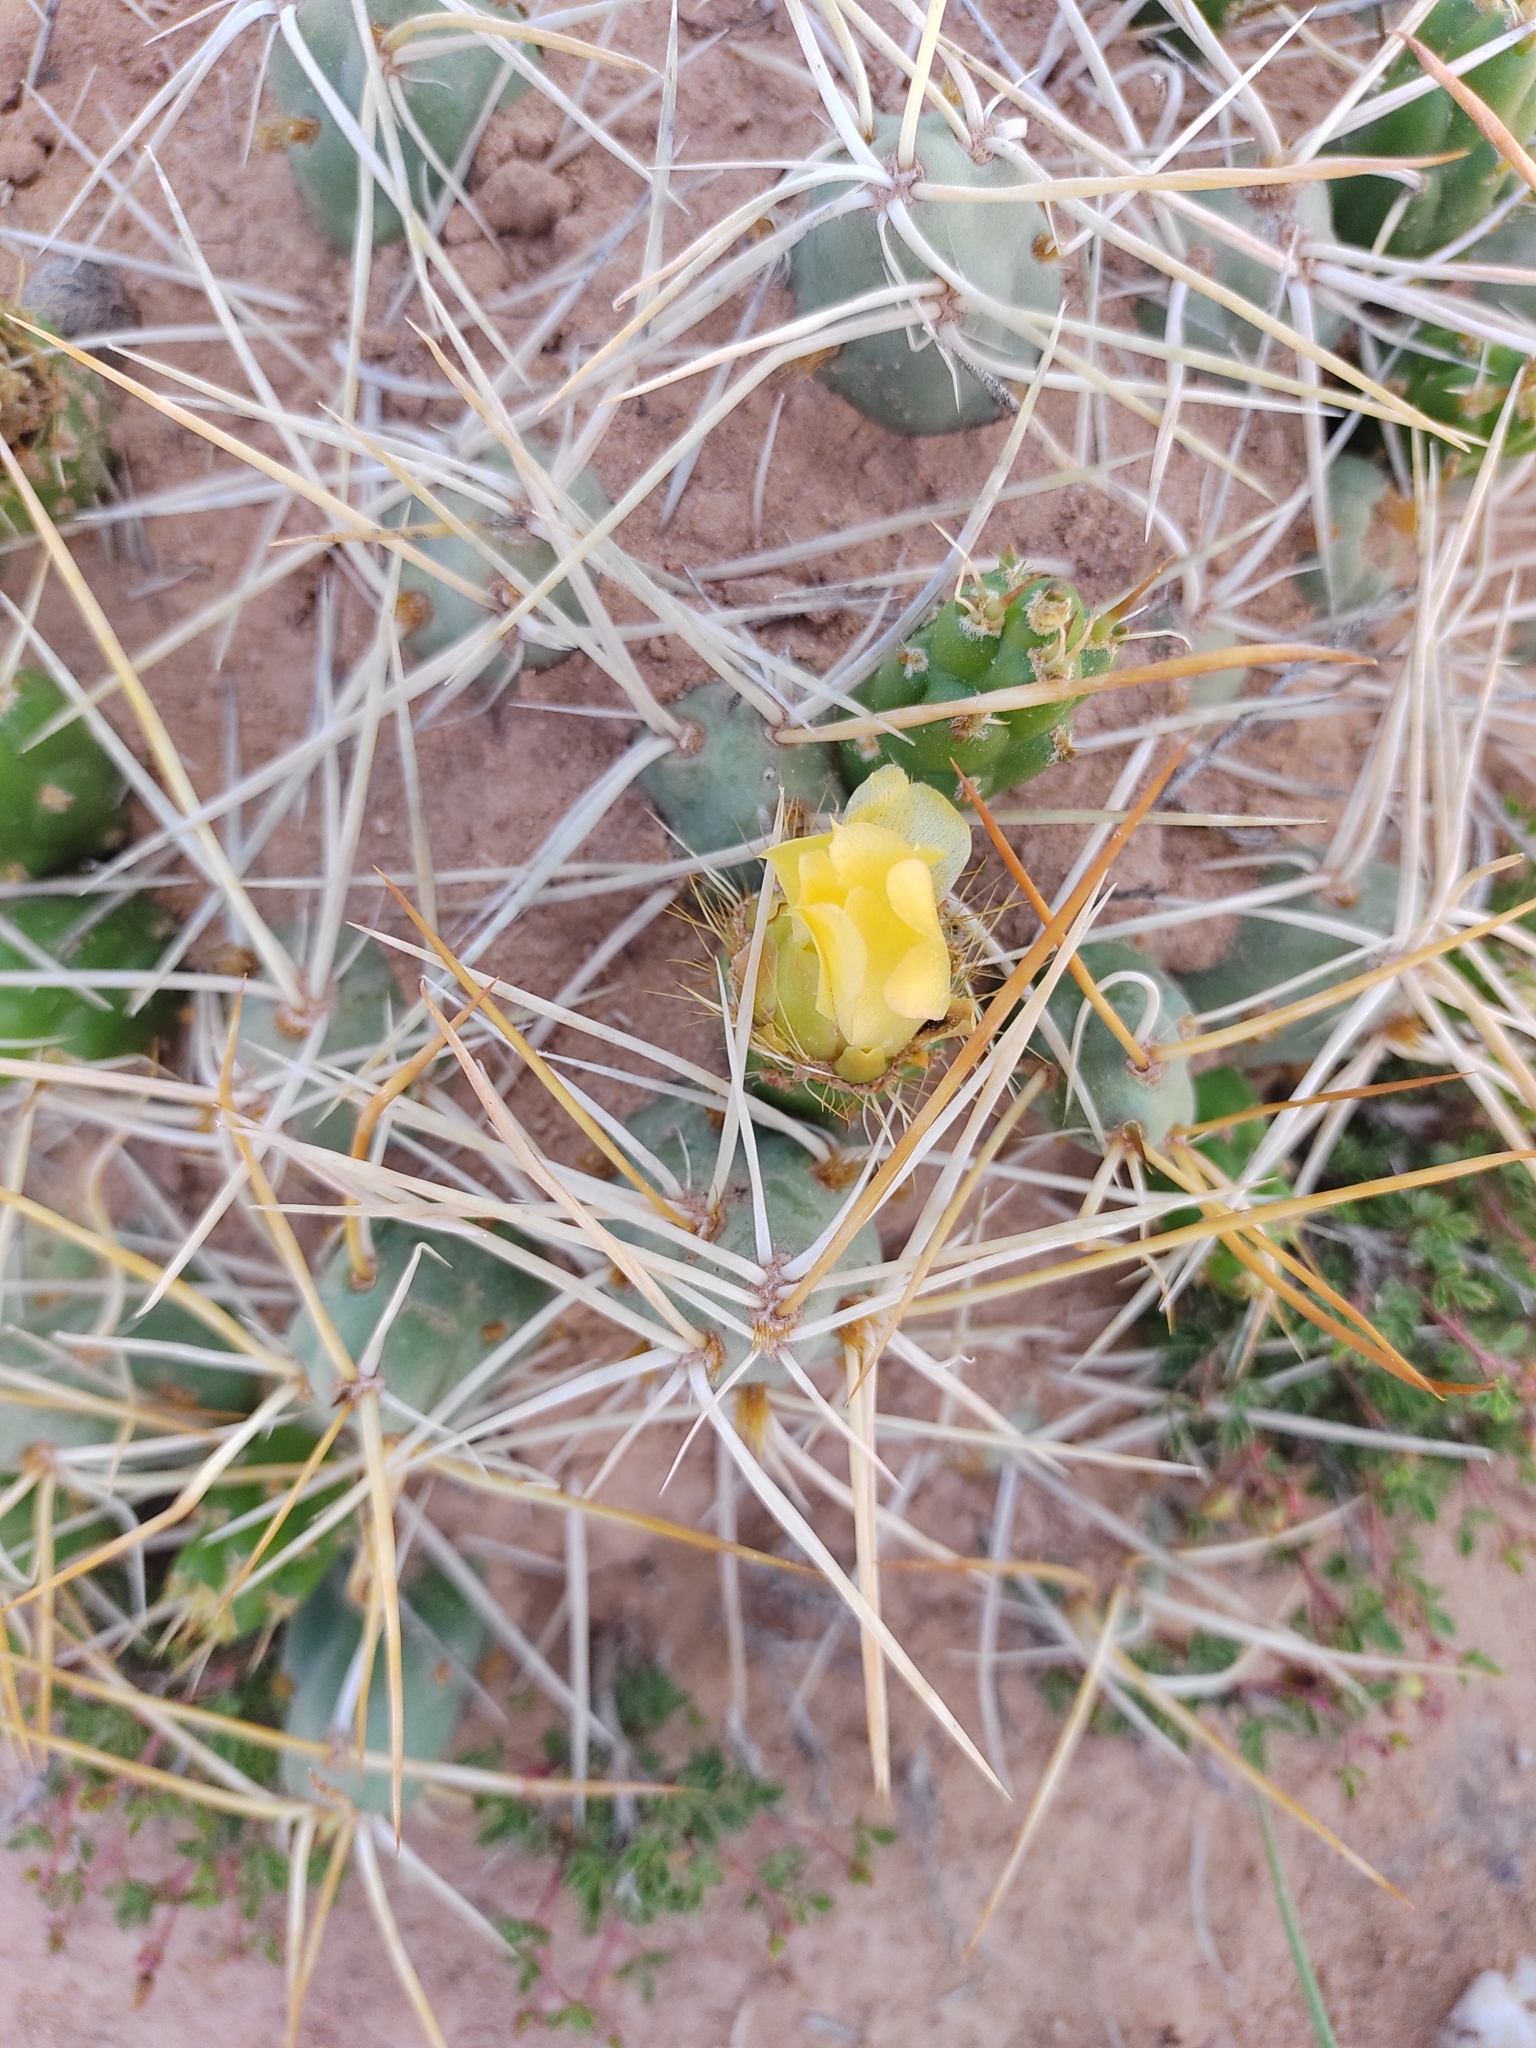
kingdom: Plantae
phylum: Tracheophyta
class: Magnoliopsida
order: Caryophyllales
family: Cactaceae
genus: Cumulopuntia
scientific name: Cumulopuntia boliviana
